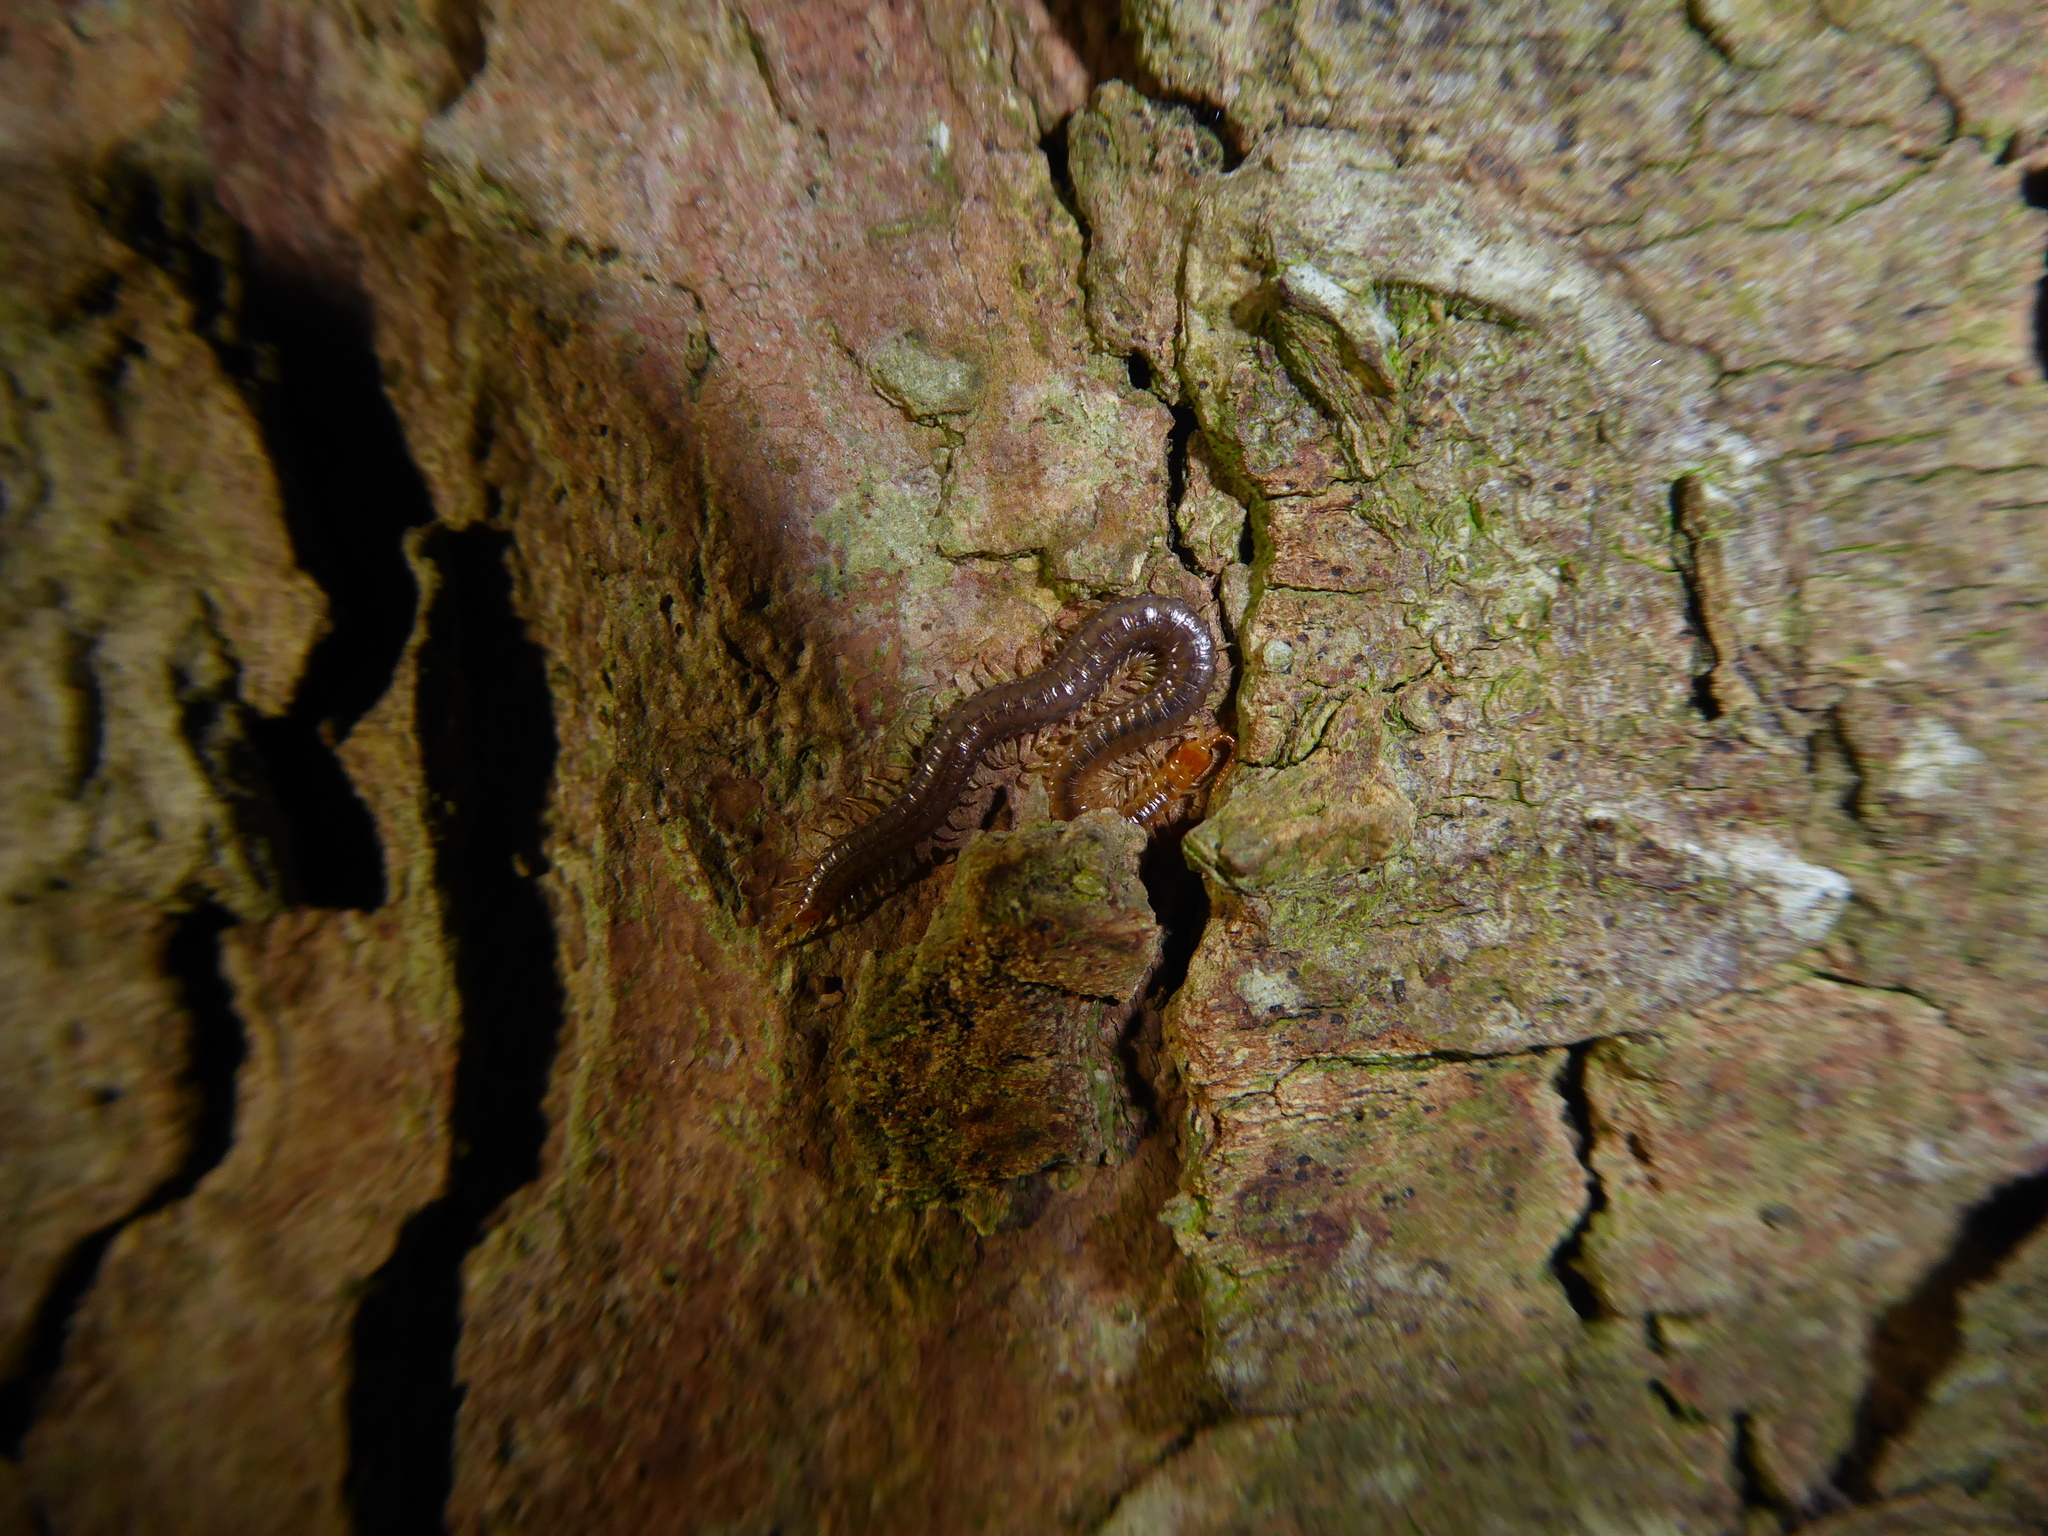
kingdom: Animalia
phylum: Arthropoda
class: Chilopoda
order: Geophilomorpha
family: Geophilidae
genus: Geophilus
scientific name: Geophilus carpophagus
